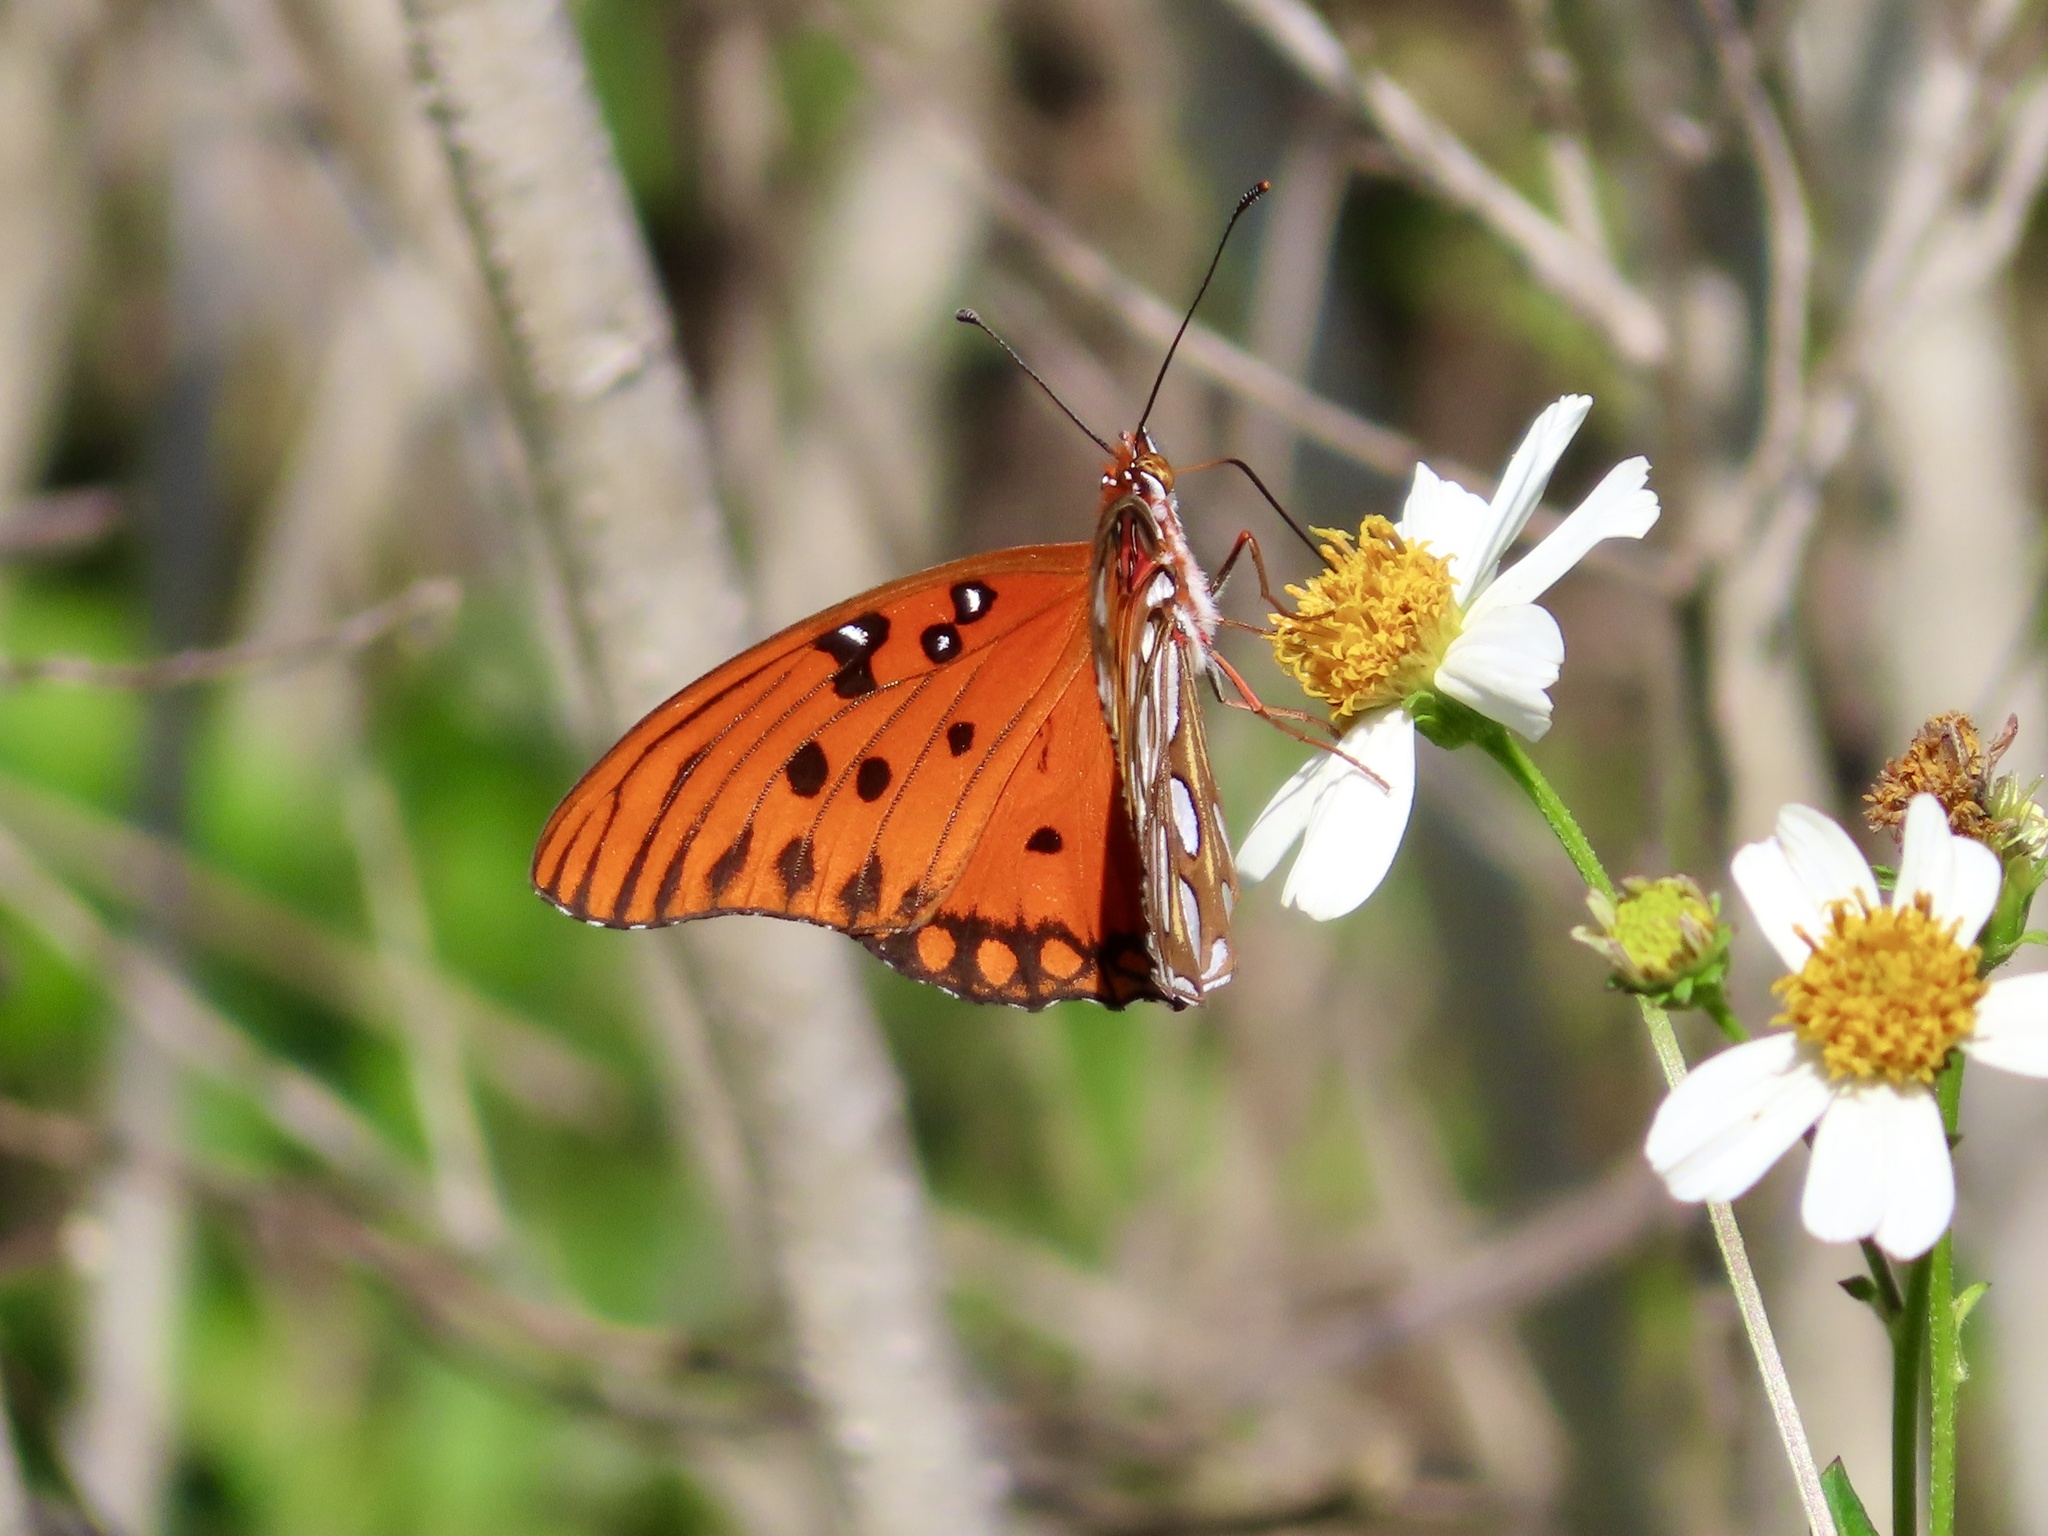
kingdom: Animalia
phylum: Arthropoda
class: Insecta
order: Lepidoptera
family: Nymphalidae
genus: Dione
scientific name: Dione vanillae
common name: Gulf fritillary
